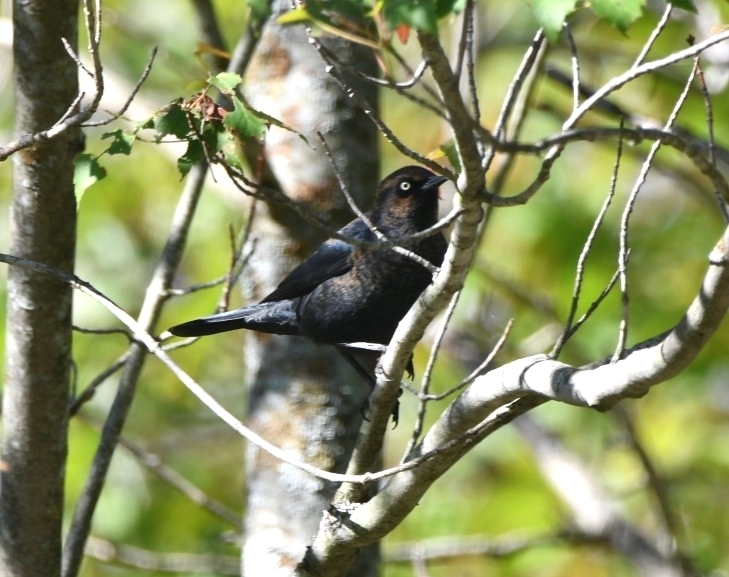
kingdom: Animalia
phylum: Chordata
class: Aves
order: Passeriformes
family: Icteridae
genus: Euphagus
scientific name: Euphagus carolinus
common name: Rusty blackbird
